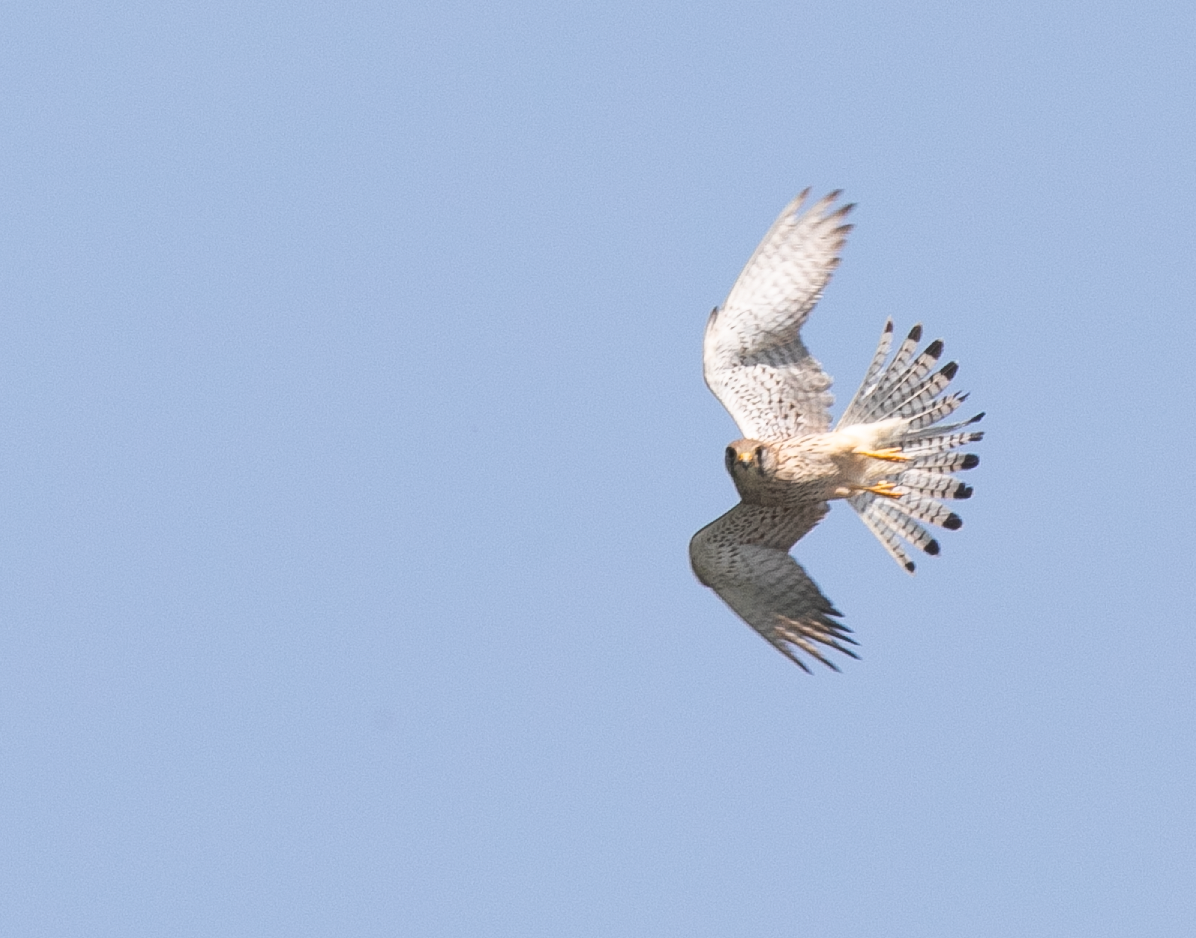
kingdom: Animalia
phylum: Chordata
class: Aves
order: Falconiformes
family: Falconidae
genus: Falco
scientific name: Falco tinnunculus
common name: Common kestrel
